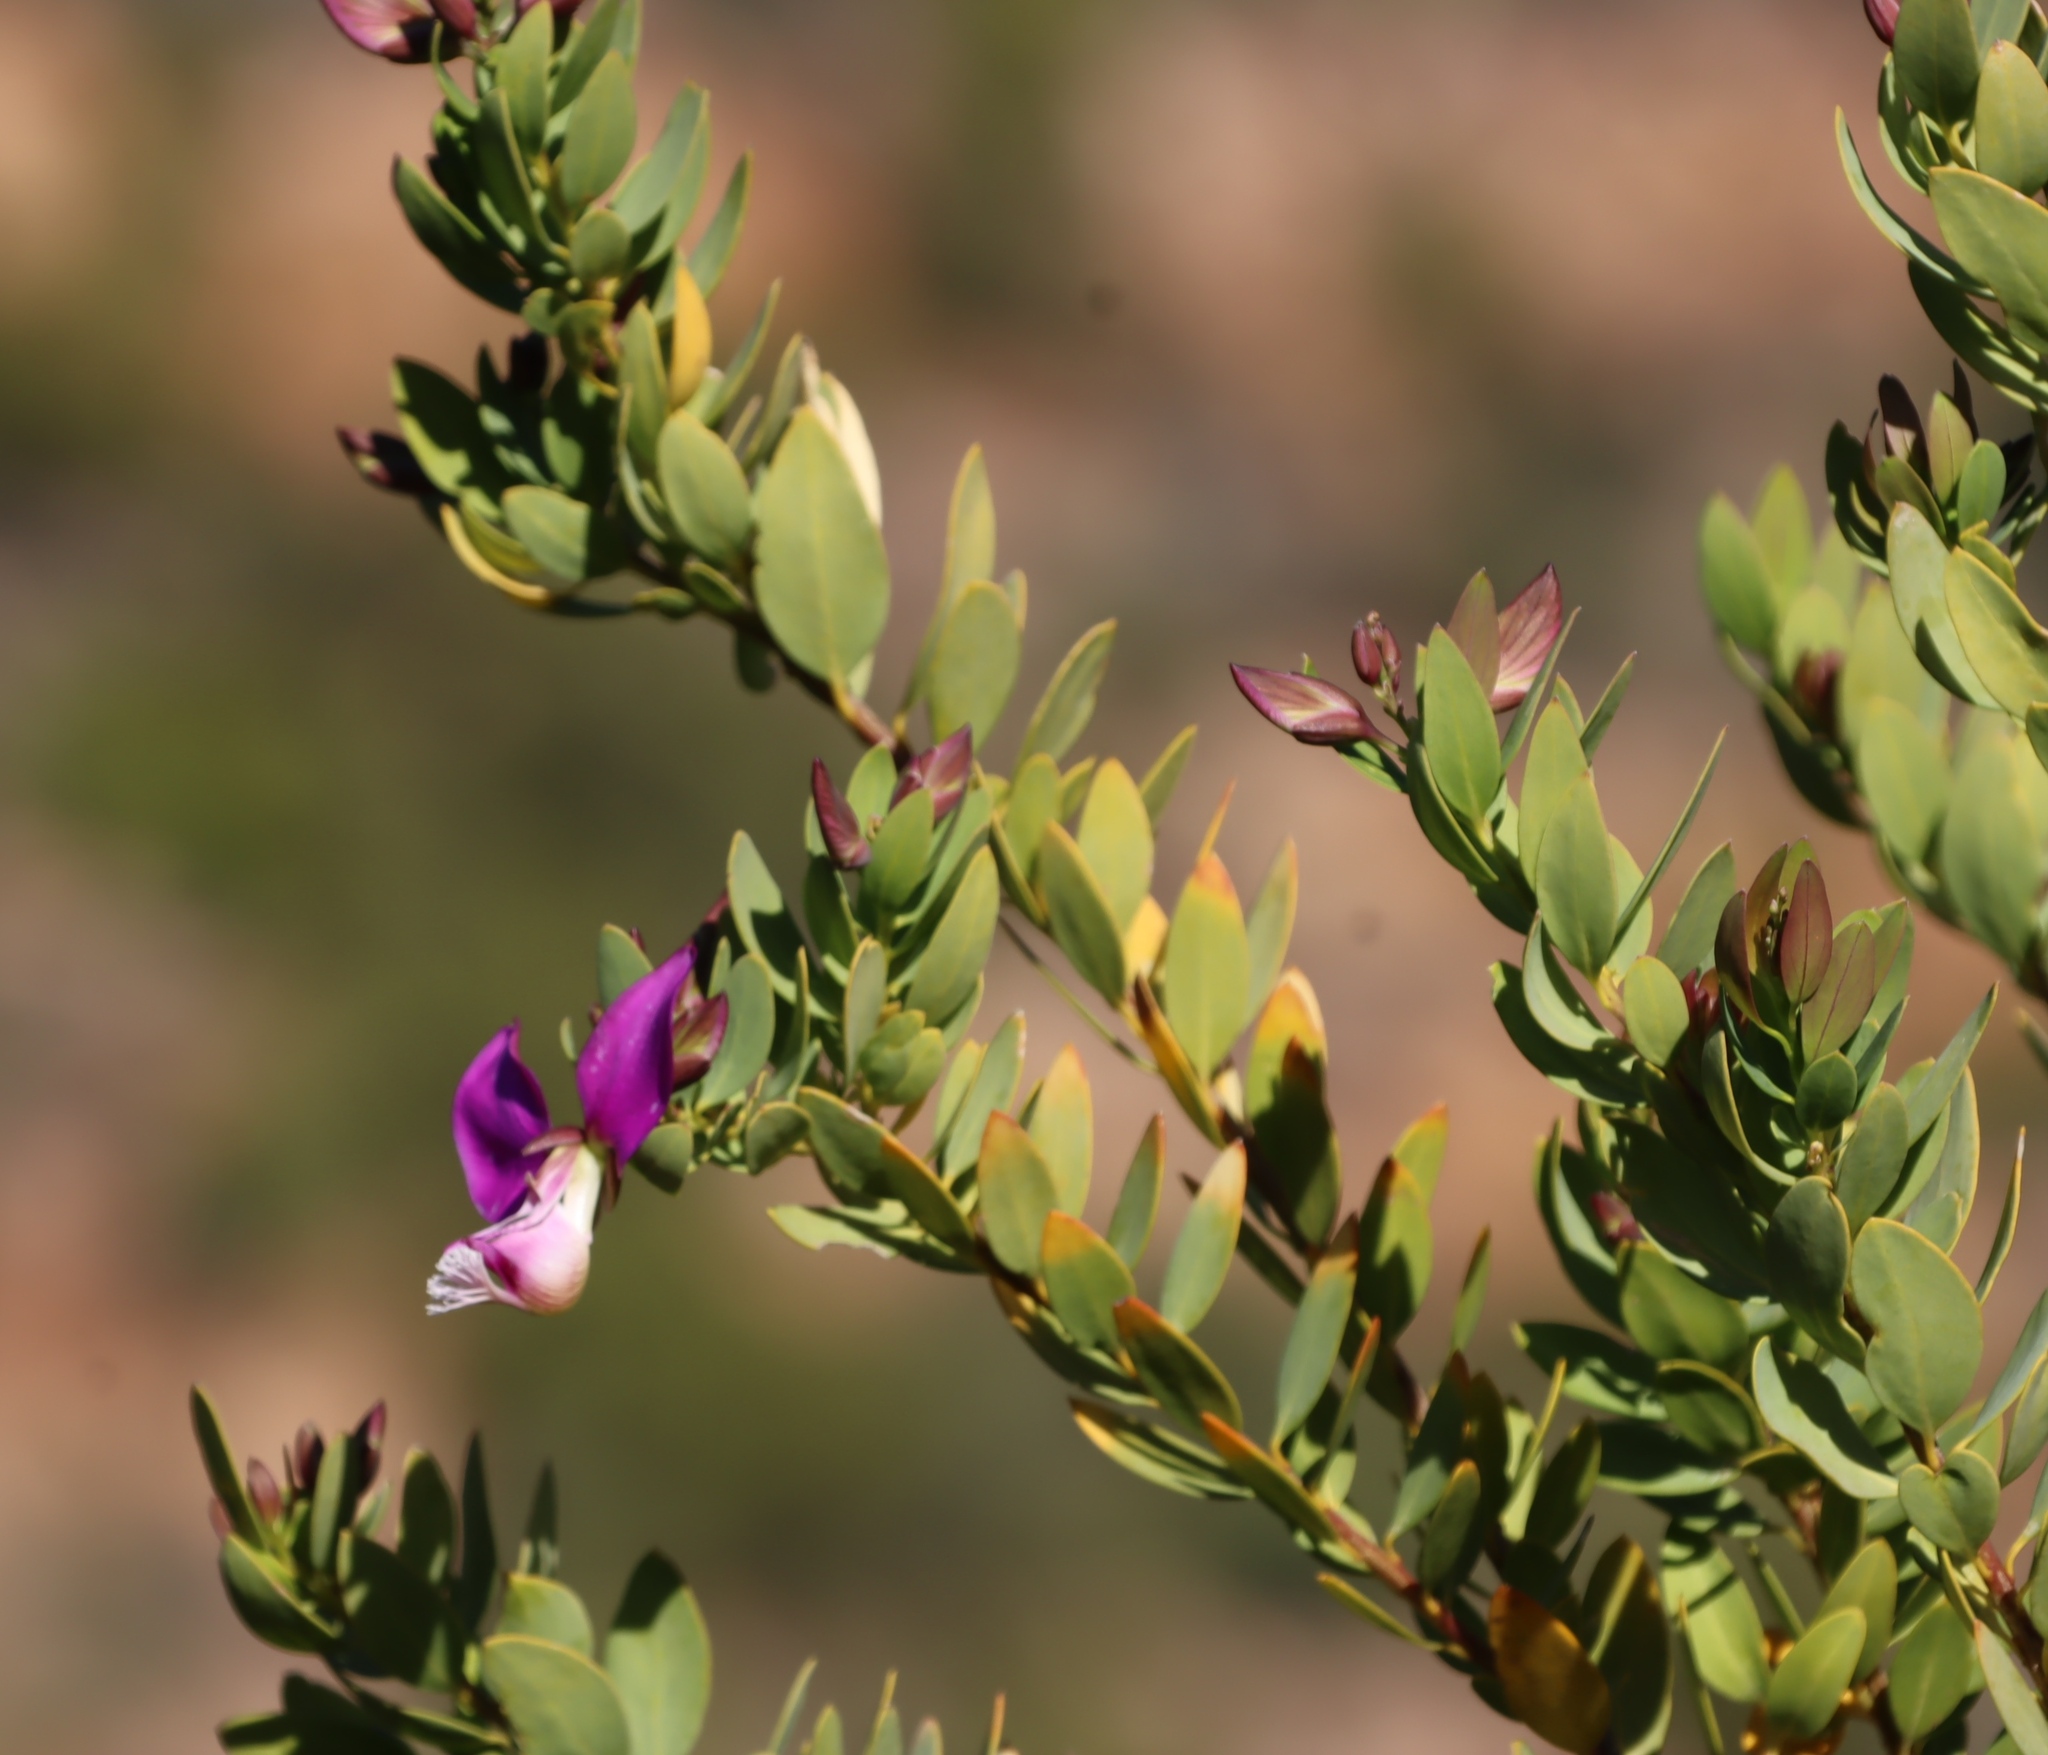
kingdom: Plantae
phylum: Tracheophyta
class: Magnoliopsida
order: Fabales
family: Polygalaceae
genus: Polygala
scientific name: Polygala myrtifolia
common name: Myrtle-leaf milkwort
